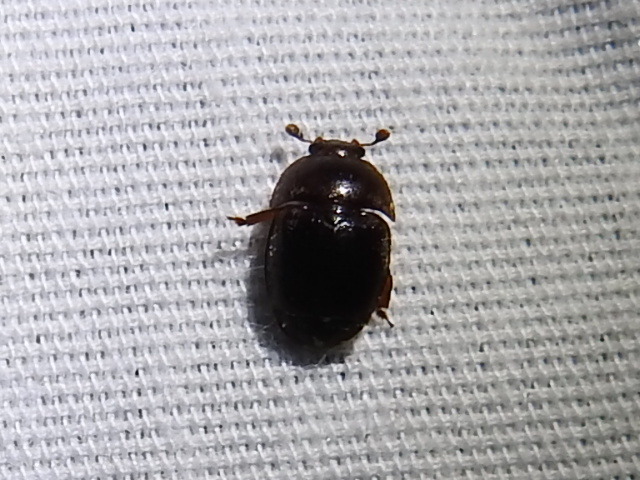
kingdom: Animalia
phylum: Arthropoda
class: Insecta
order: Coleoptera
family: Nitidulidae
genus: Aethina
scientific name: Aethina tumida
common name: Small hive beetle
